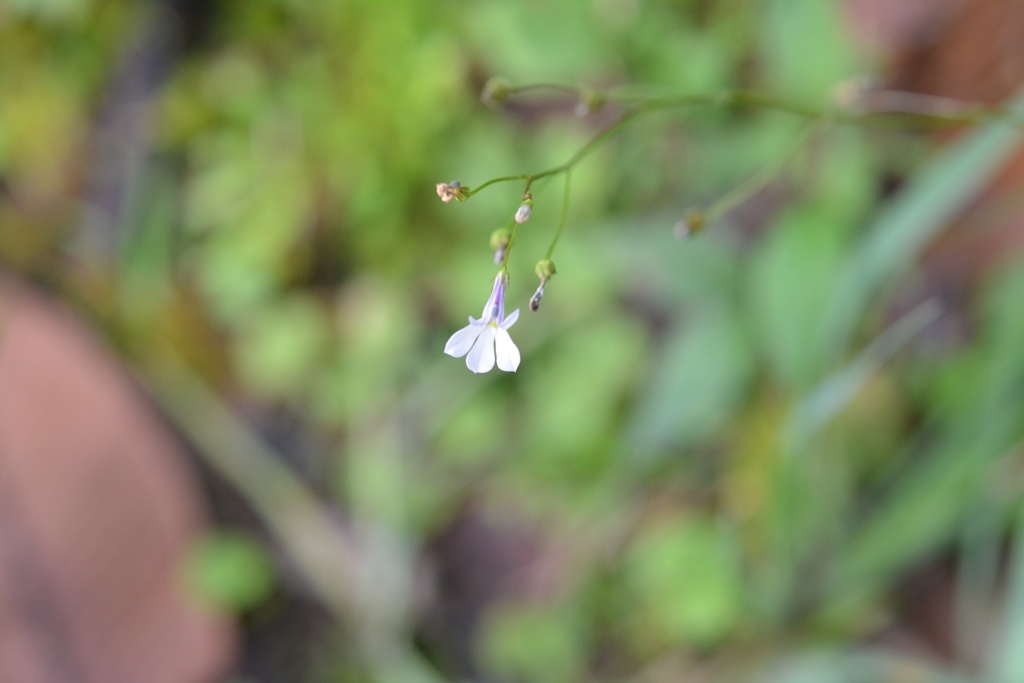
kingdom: Plantae
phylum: Tracheophyta
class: Magnoliopsida
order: Asterales
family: Campanulaceae
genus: Lobelia
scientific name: Lobelia sartorii
